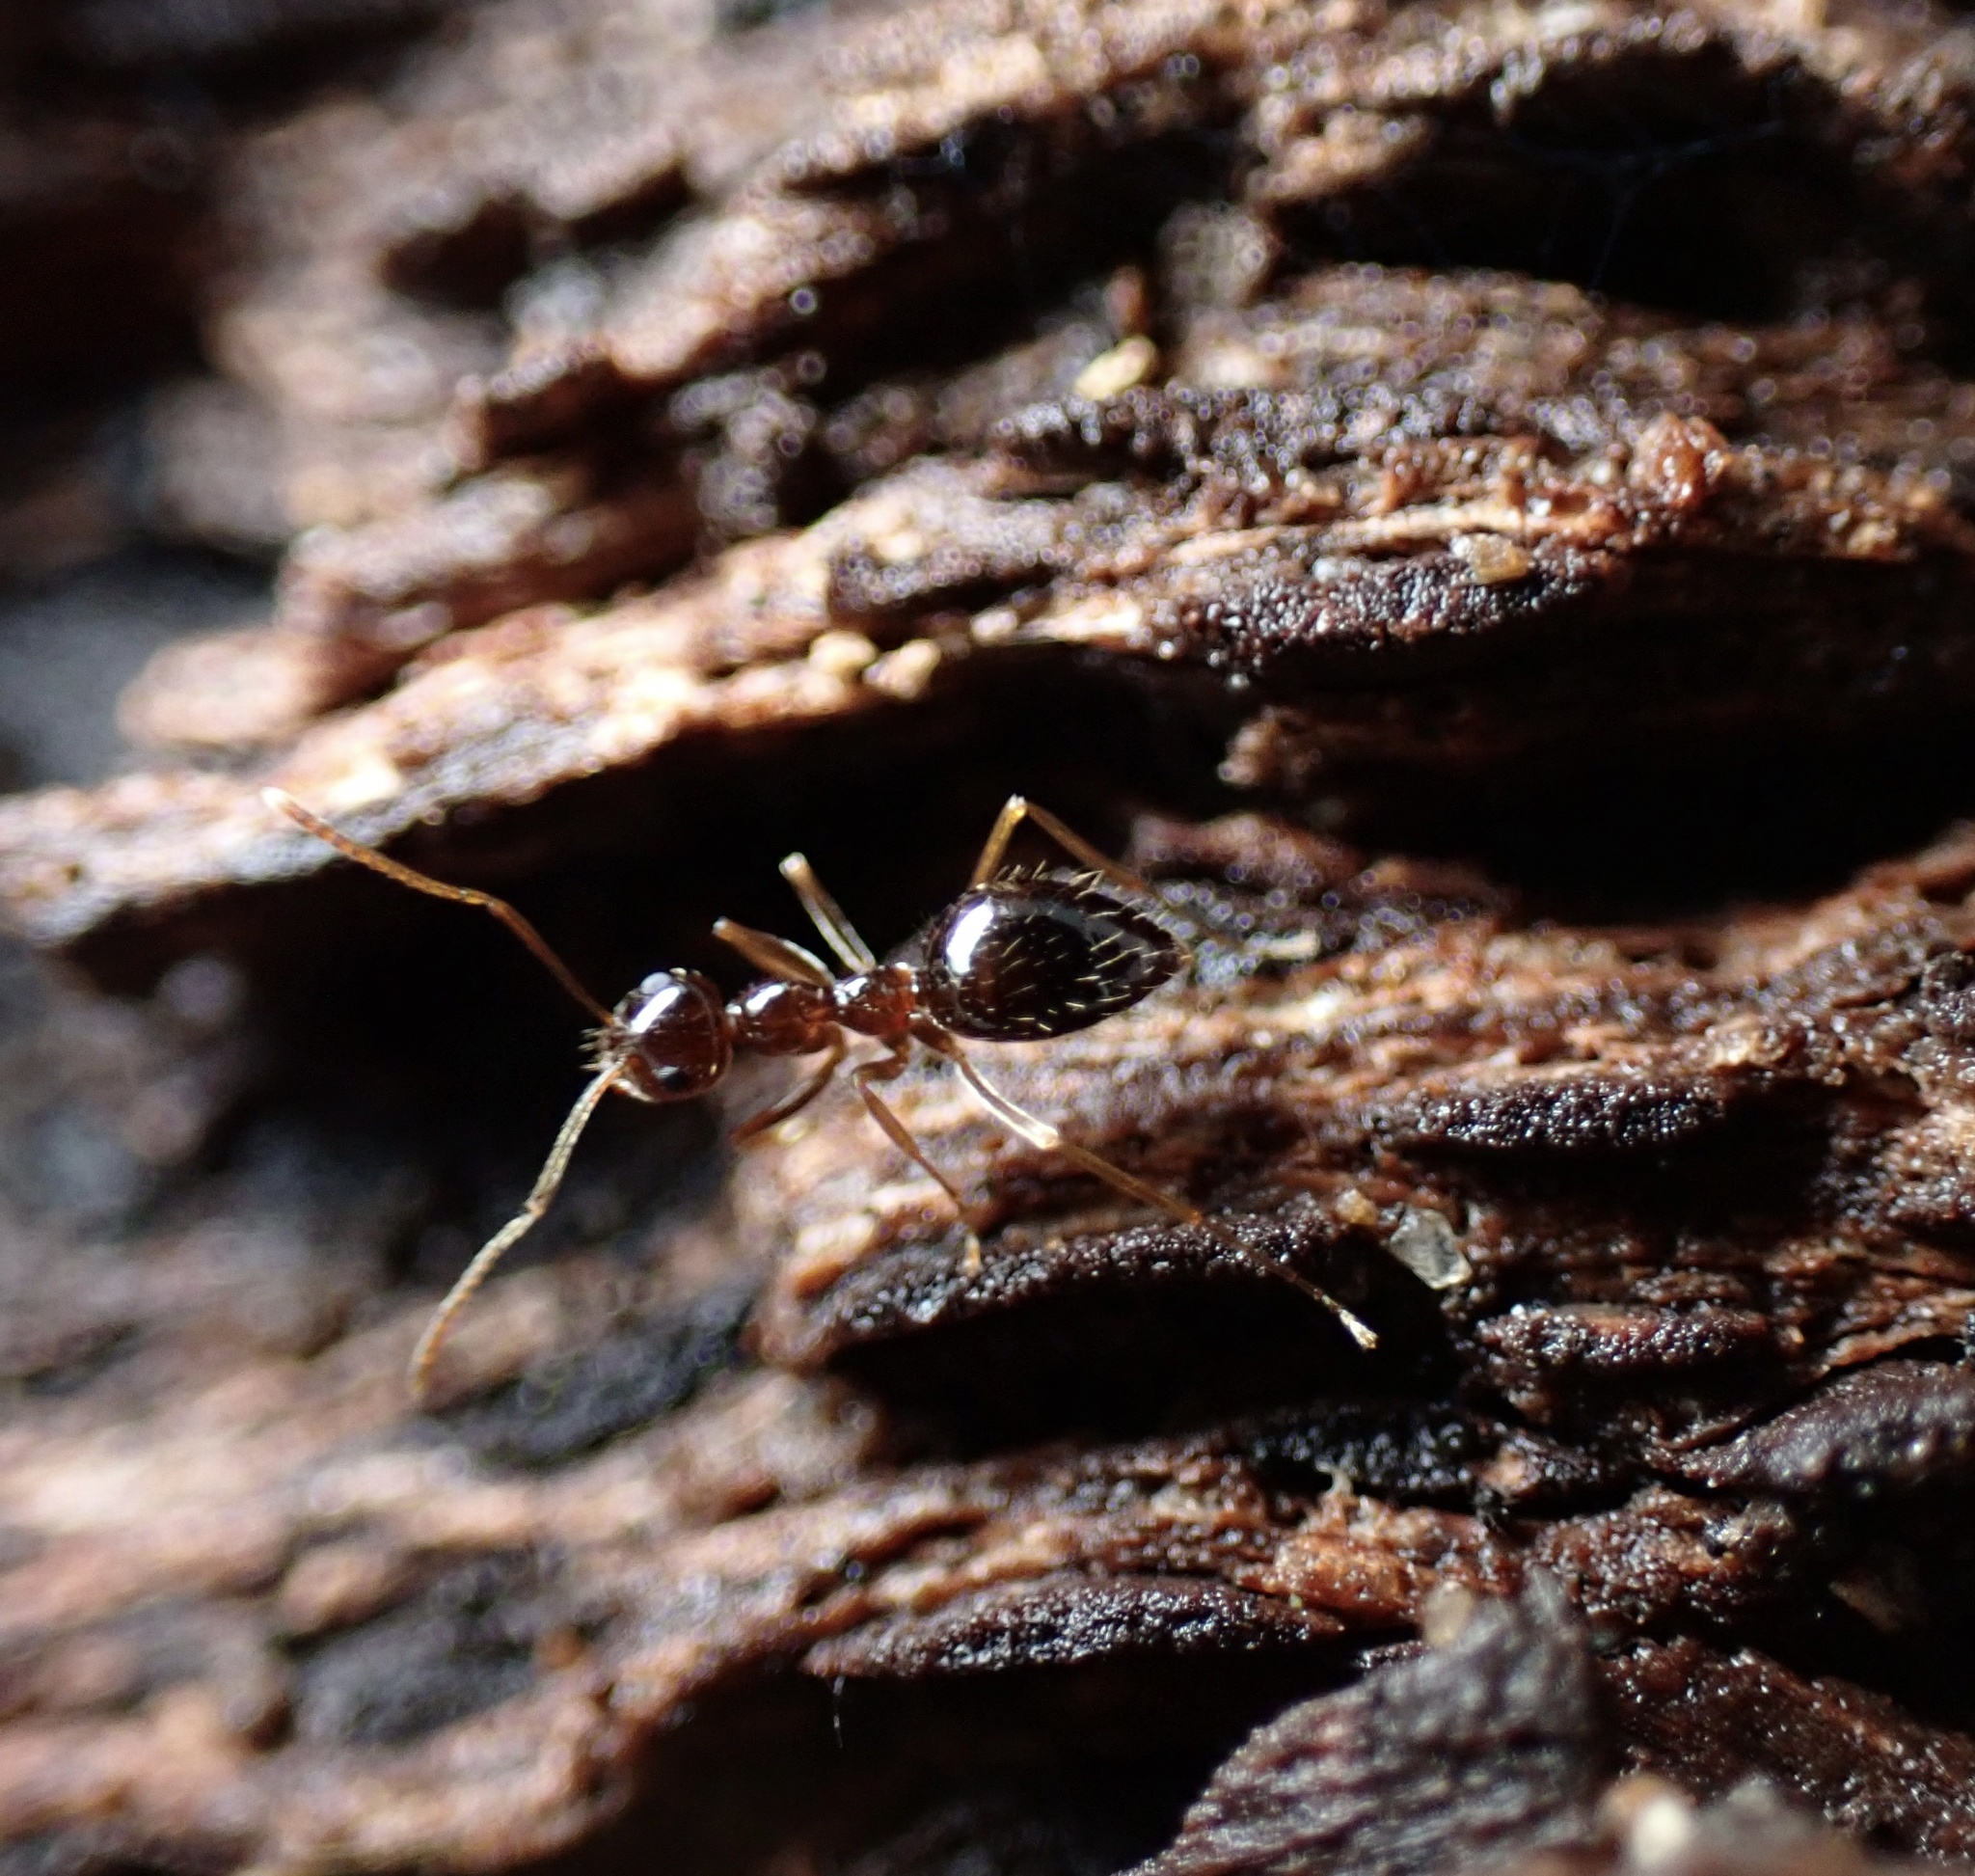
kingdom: Animalia
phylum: Arthropoda
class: Insecta
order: Hymenoptera
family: Formicidae
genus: Prenolepis
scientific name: Prenolepis imparis
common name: Small honey ant
